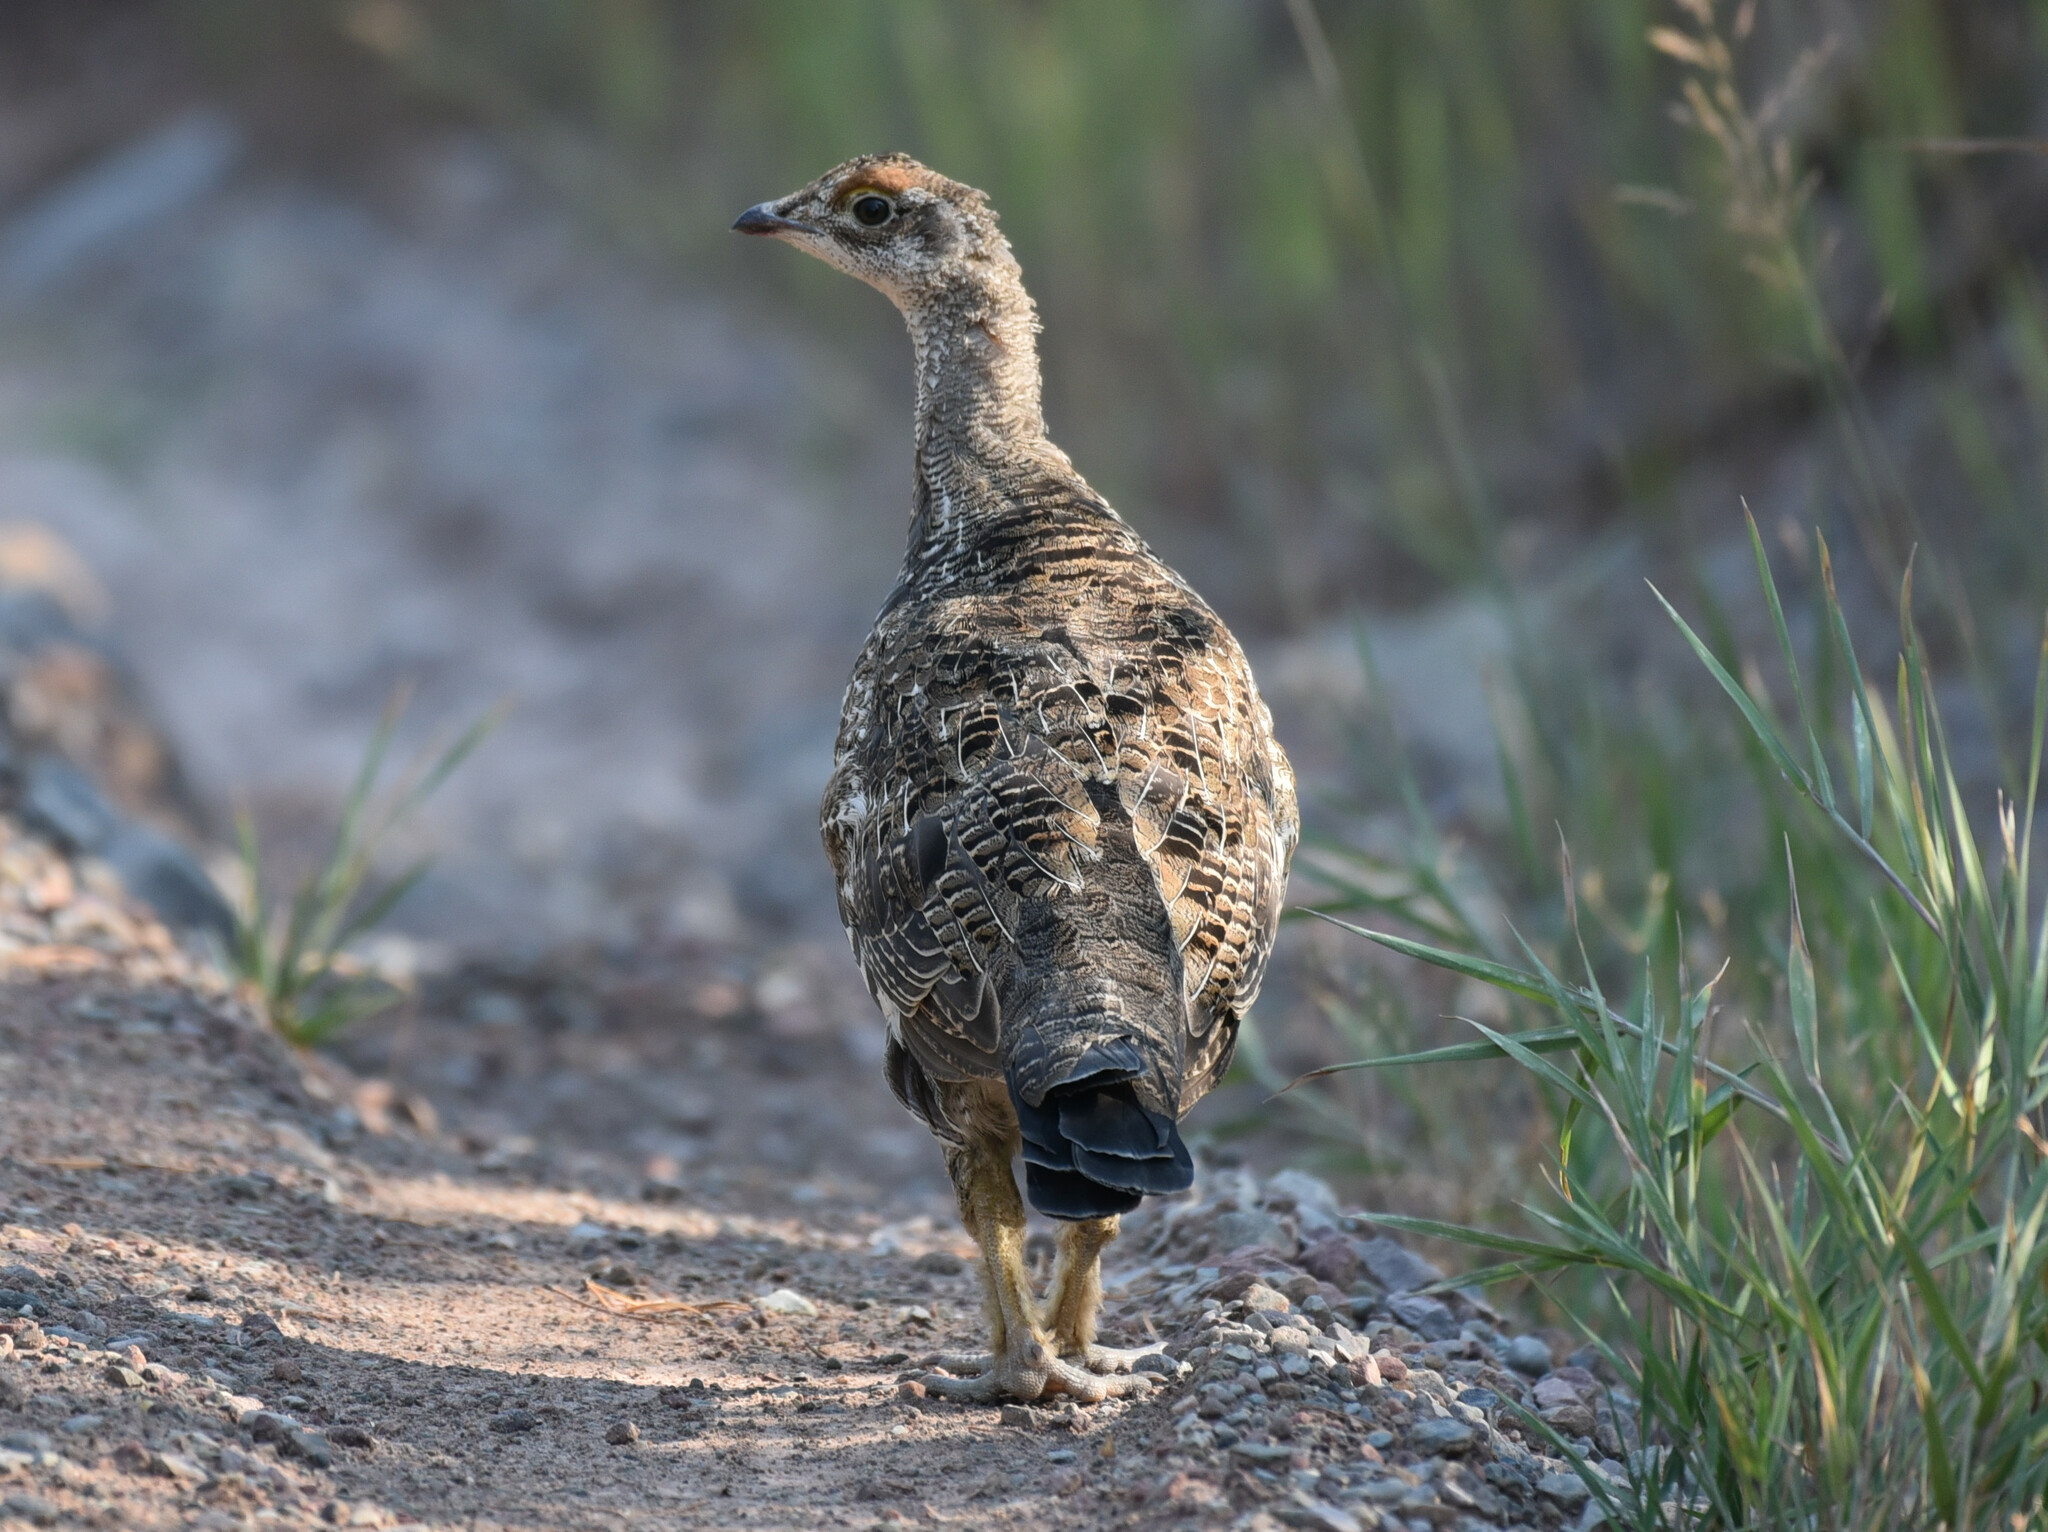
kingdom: Animalia
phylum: Chordata
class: Aves
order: Galliformes
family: Phasianidae
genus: Dendragapus
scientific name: Dendragapus obscurus
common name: Dusky grouse
